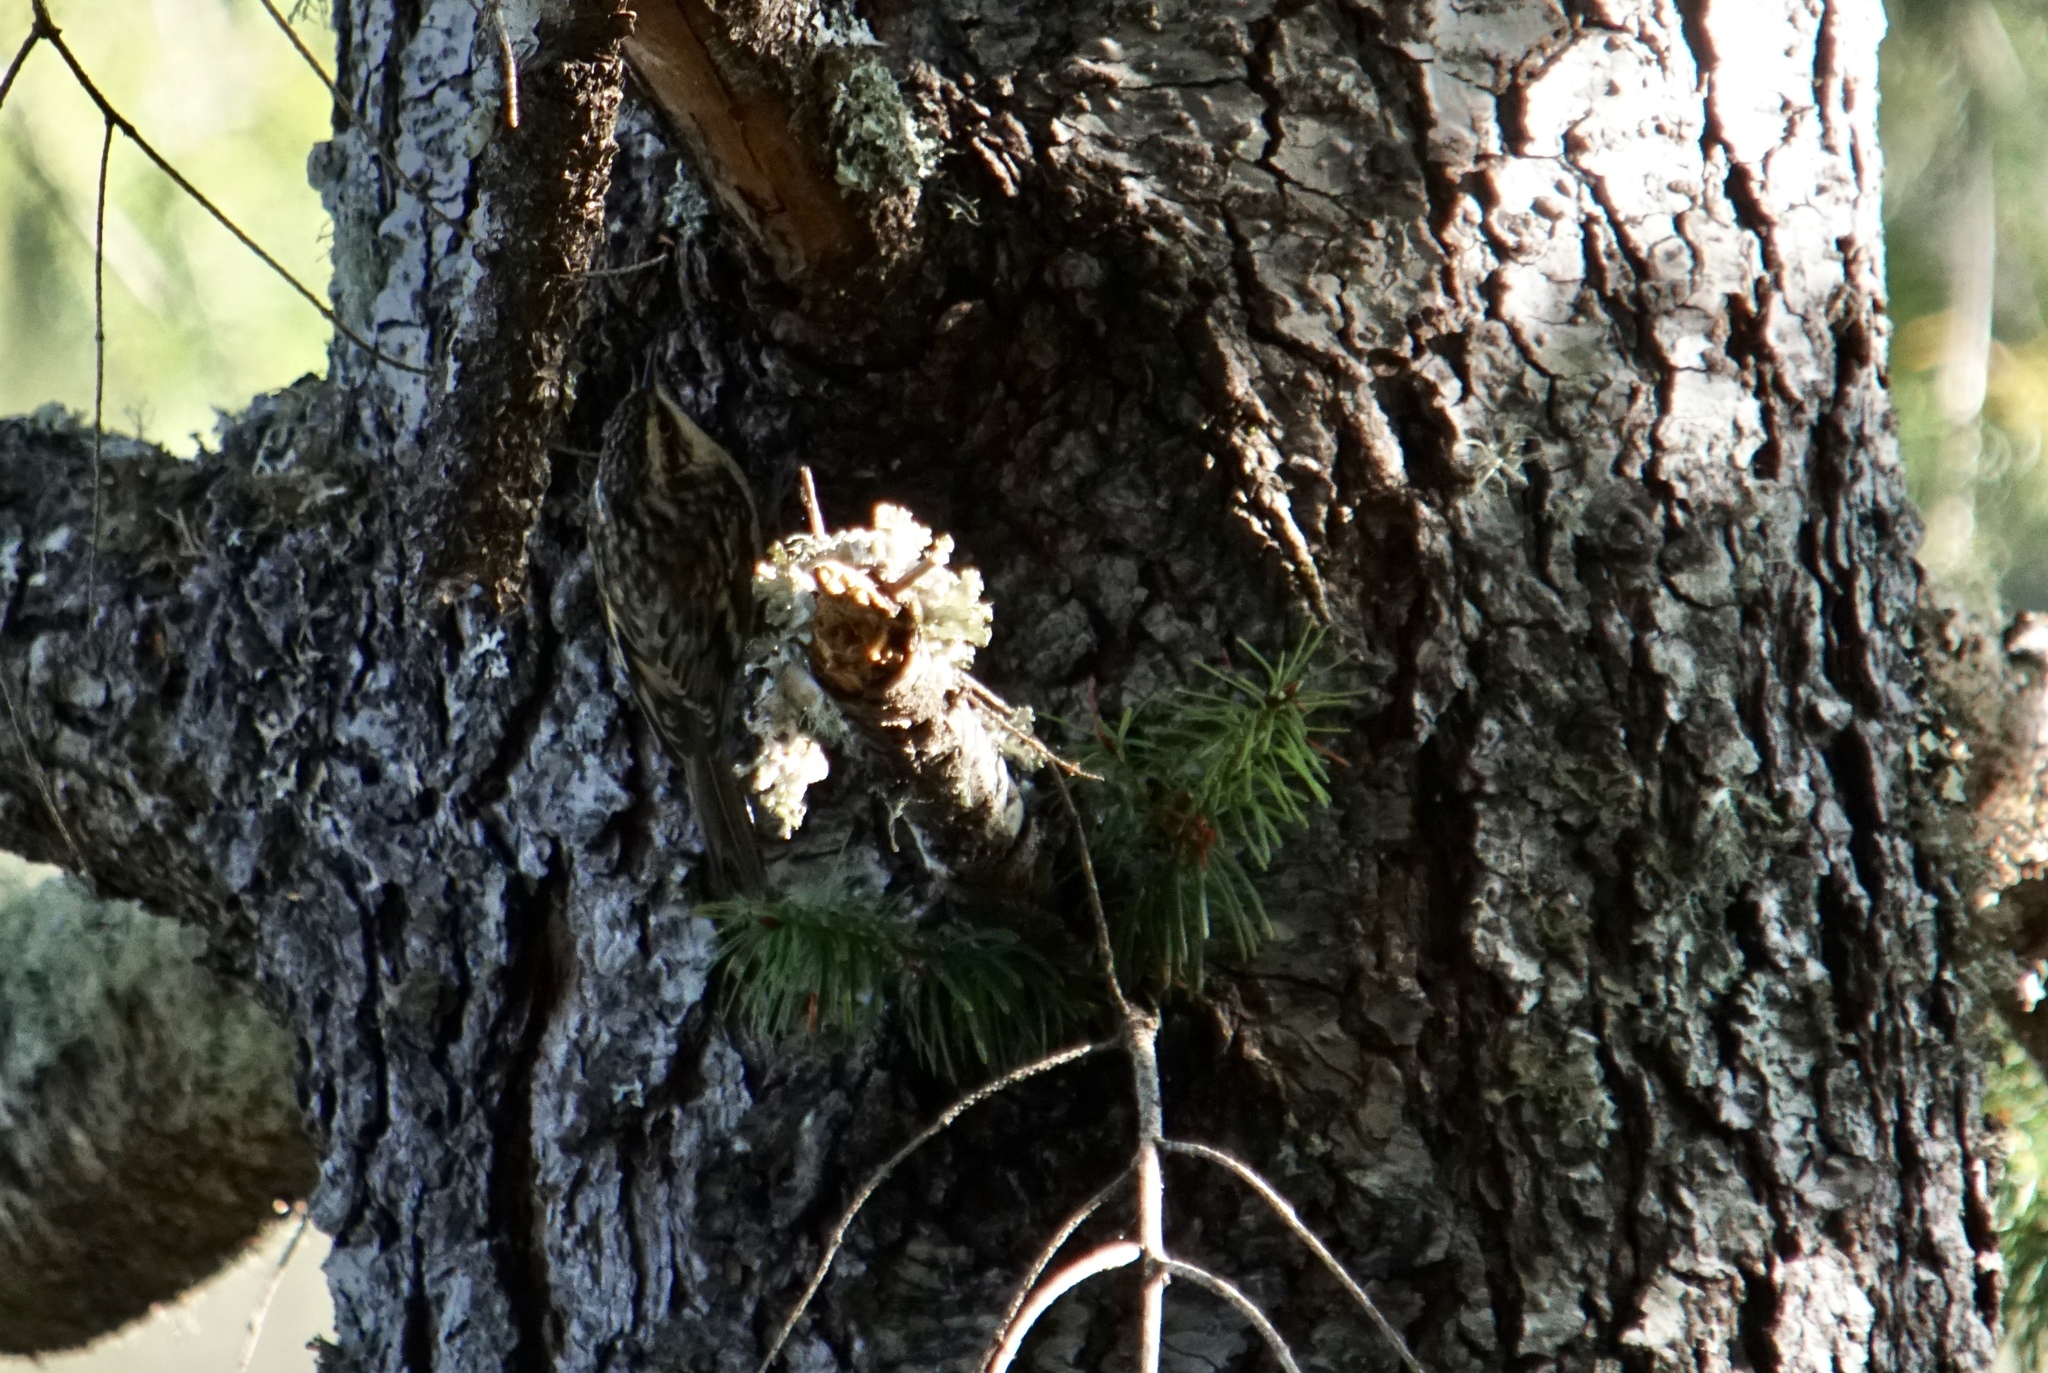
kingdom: Animalia
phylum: Chordata
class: Aves
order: Passeriformes
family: Certhiidae
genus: Certhia
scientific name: Certhia americana
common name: Brown creeper
